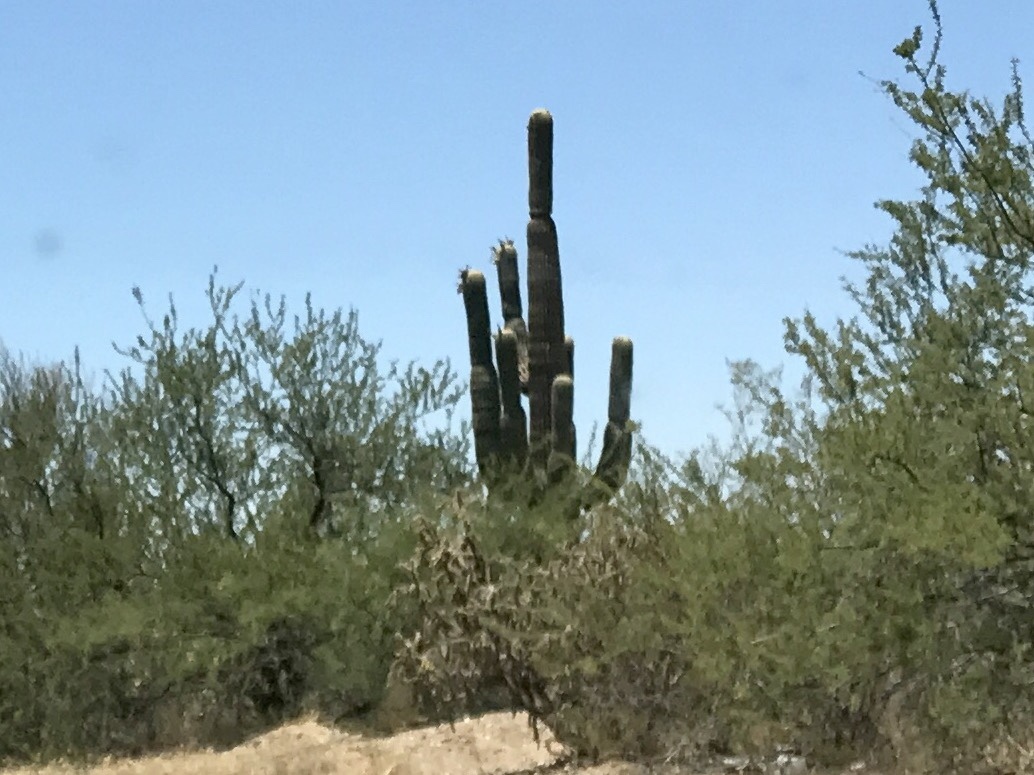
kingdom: Plantae
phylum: Tracheophyta
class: Magnoliopsida
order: Caryophyllales
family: Cactaceae
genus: Carnegiea
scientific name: Carnegiea gigantea
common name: Saguaro
